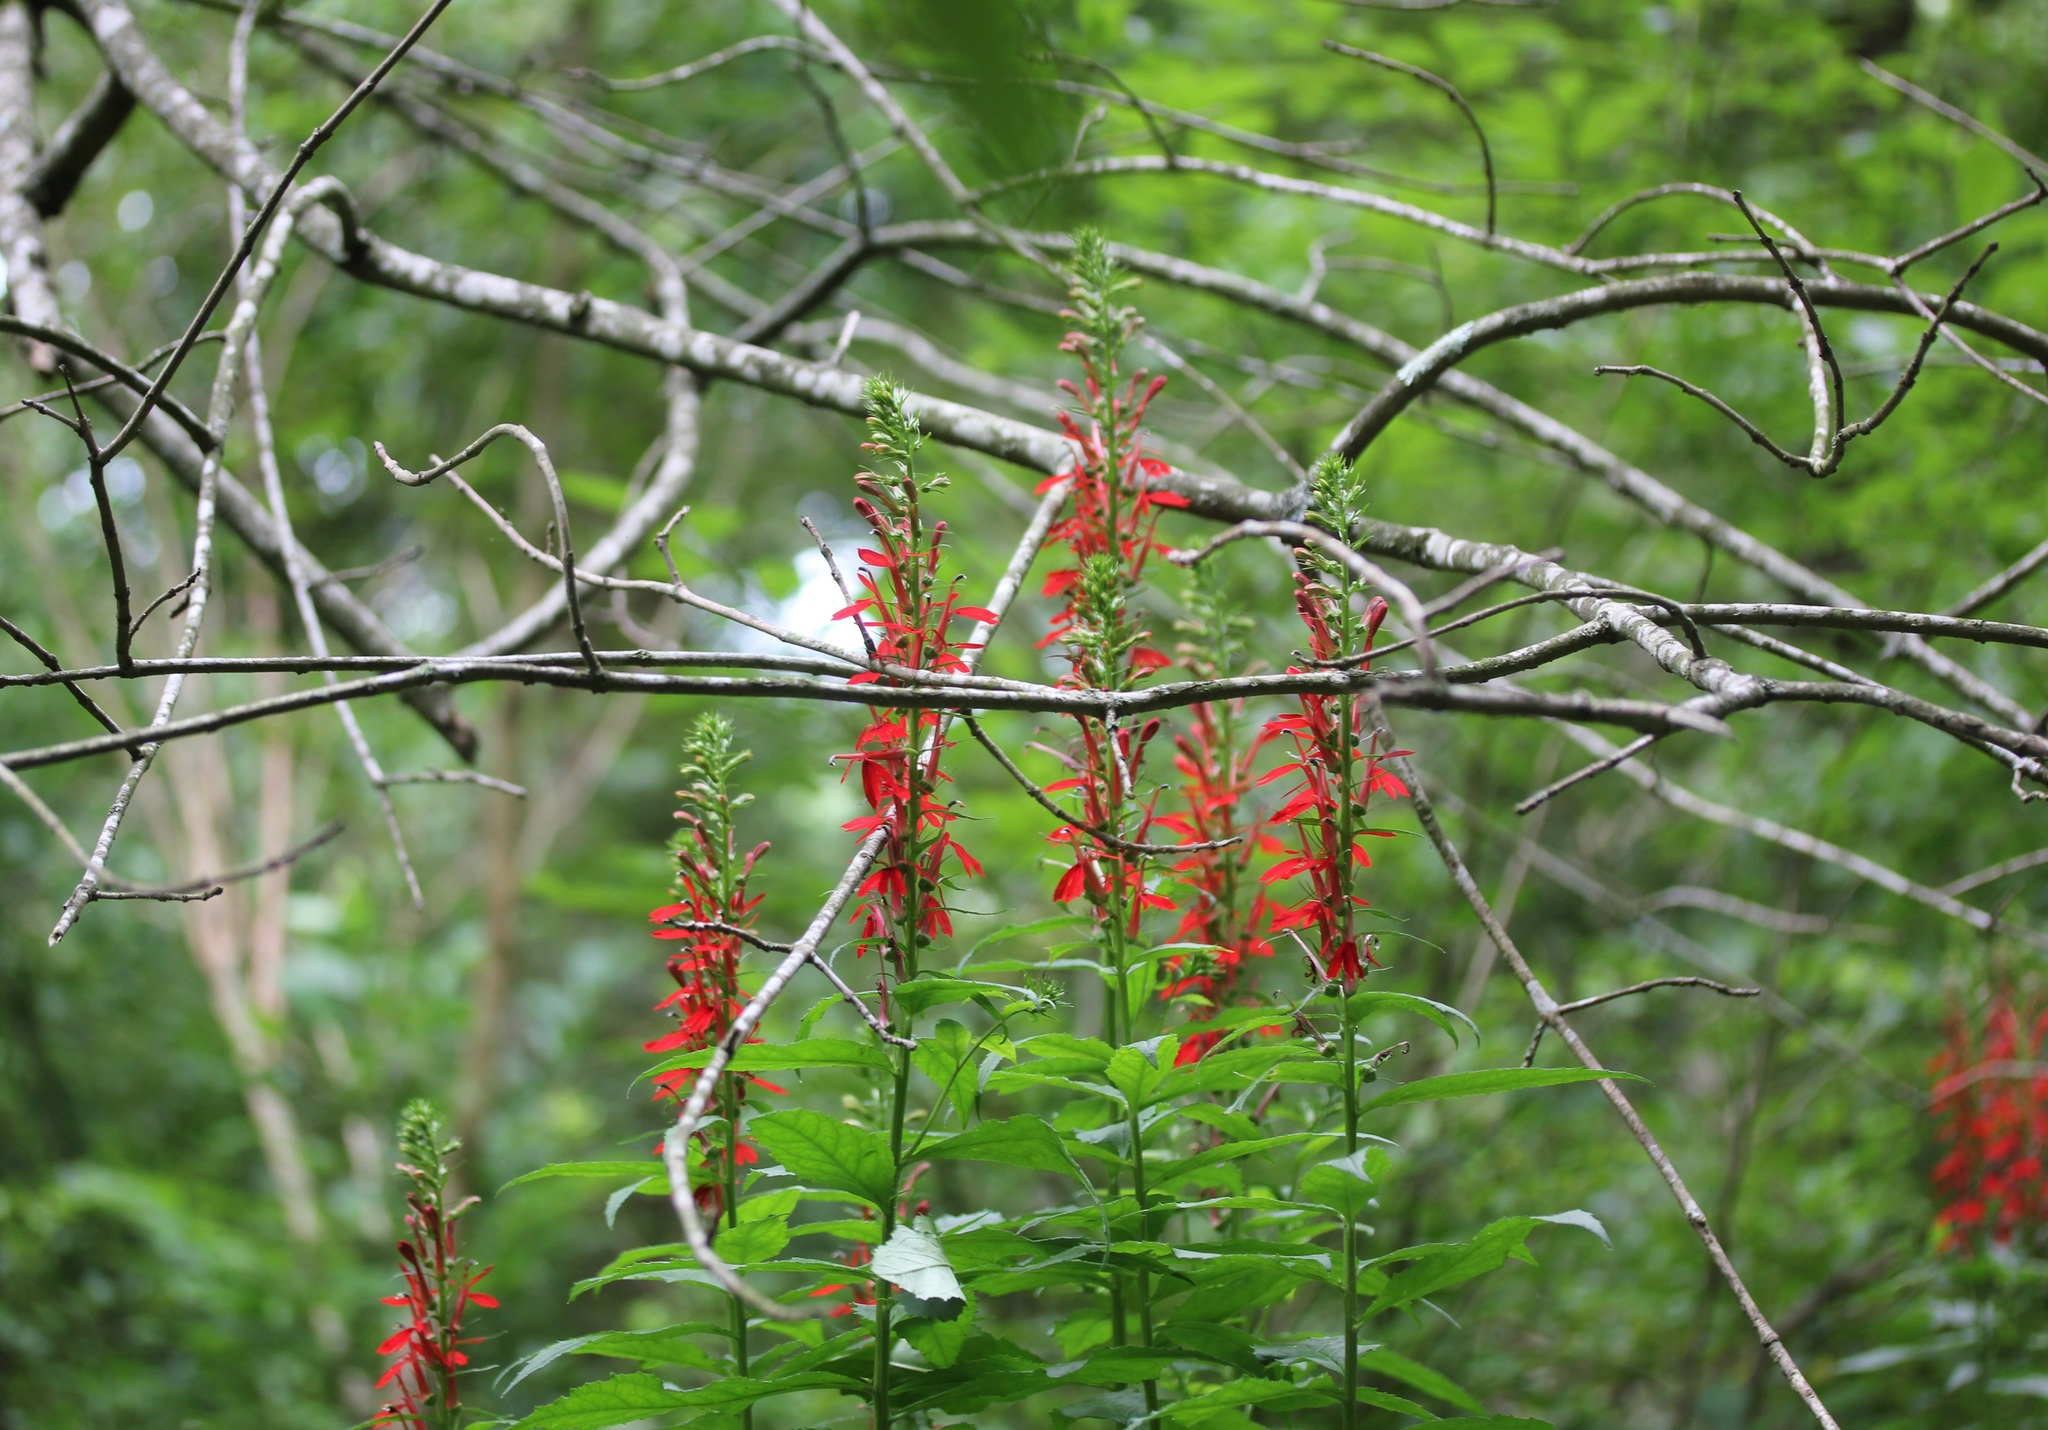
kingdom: Plantae
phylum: Tracheophyta
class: Magnoliopsida
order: Asterales
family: Campanulaceae
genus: Lobelia
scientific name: Lobelia cardinalis
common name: Cardinal flower
